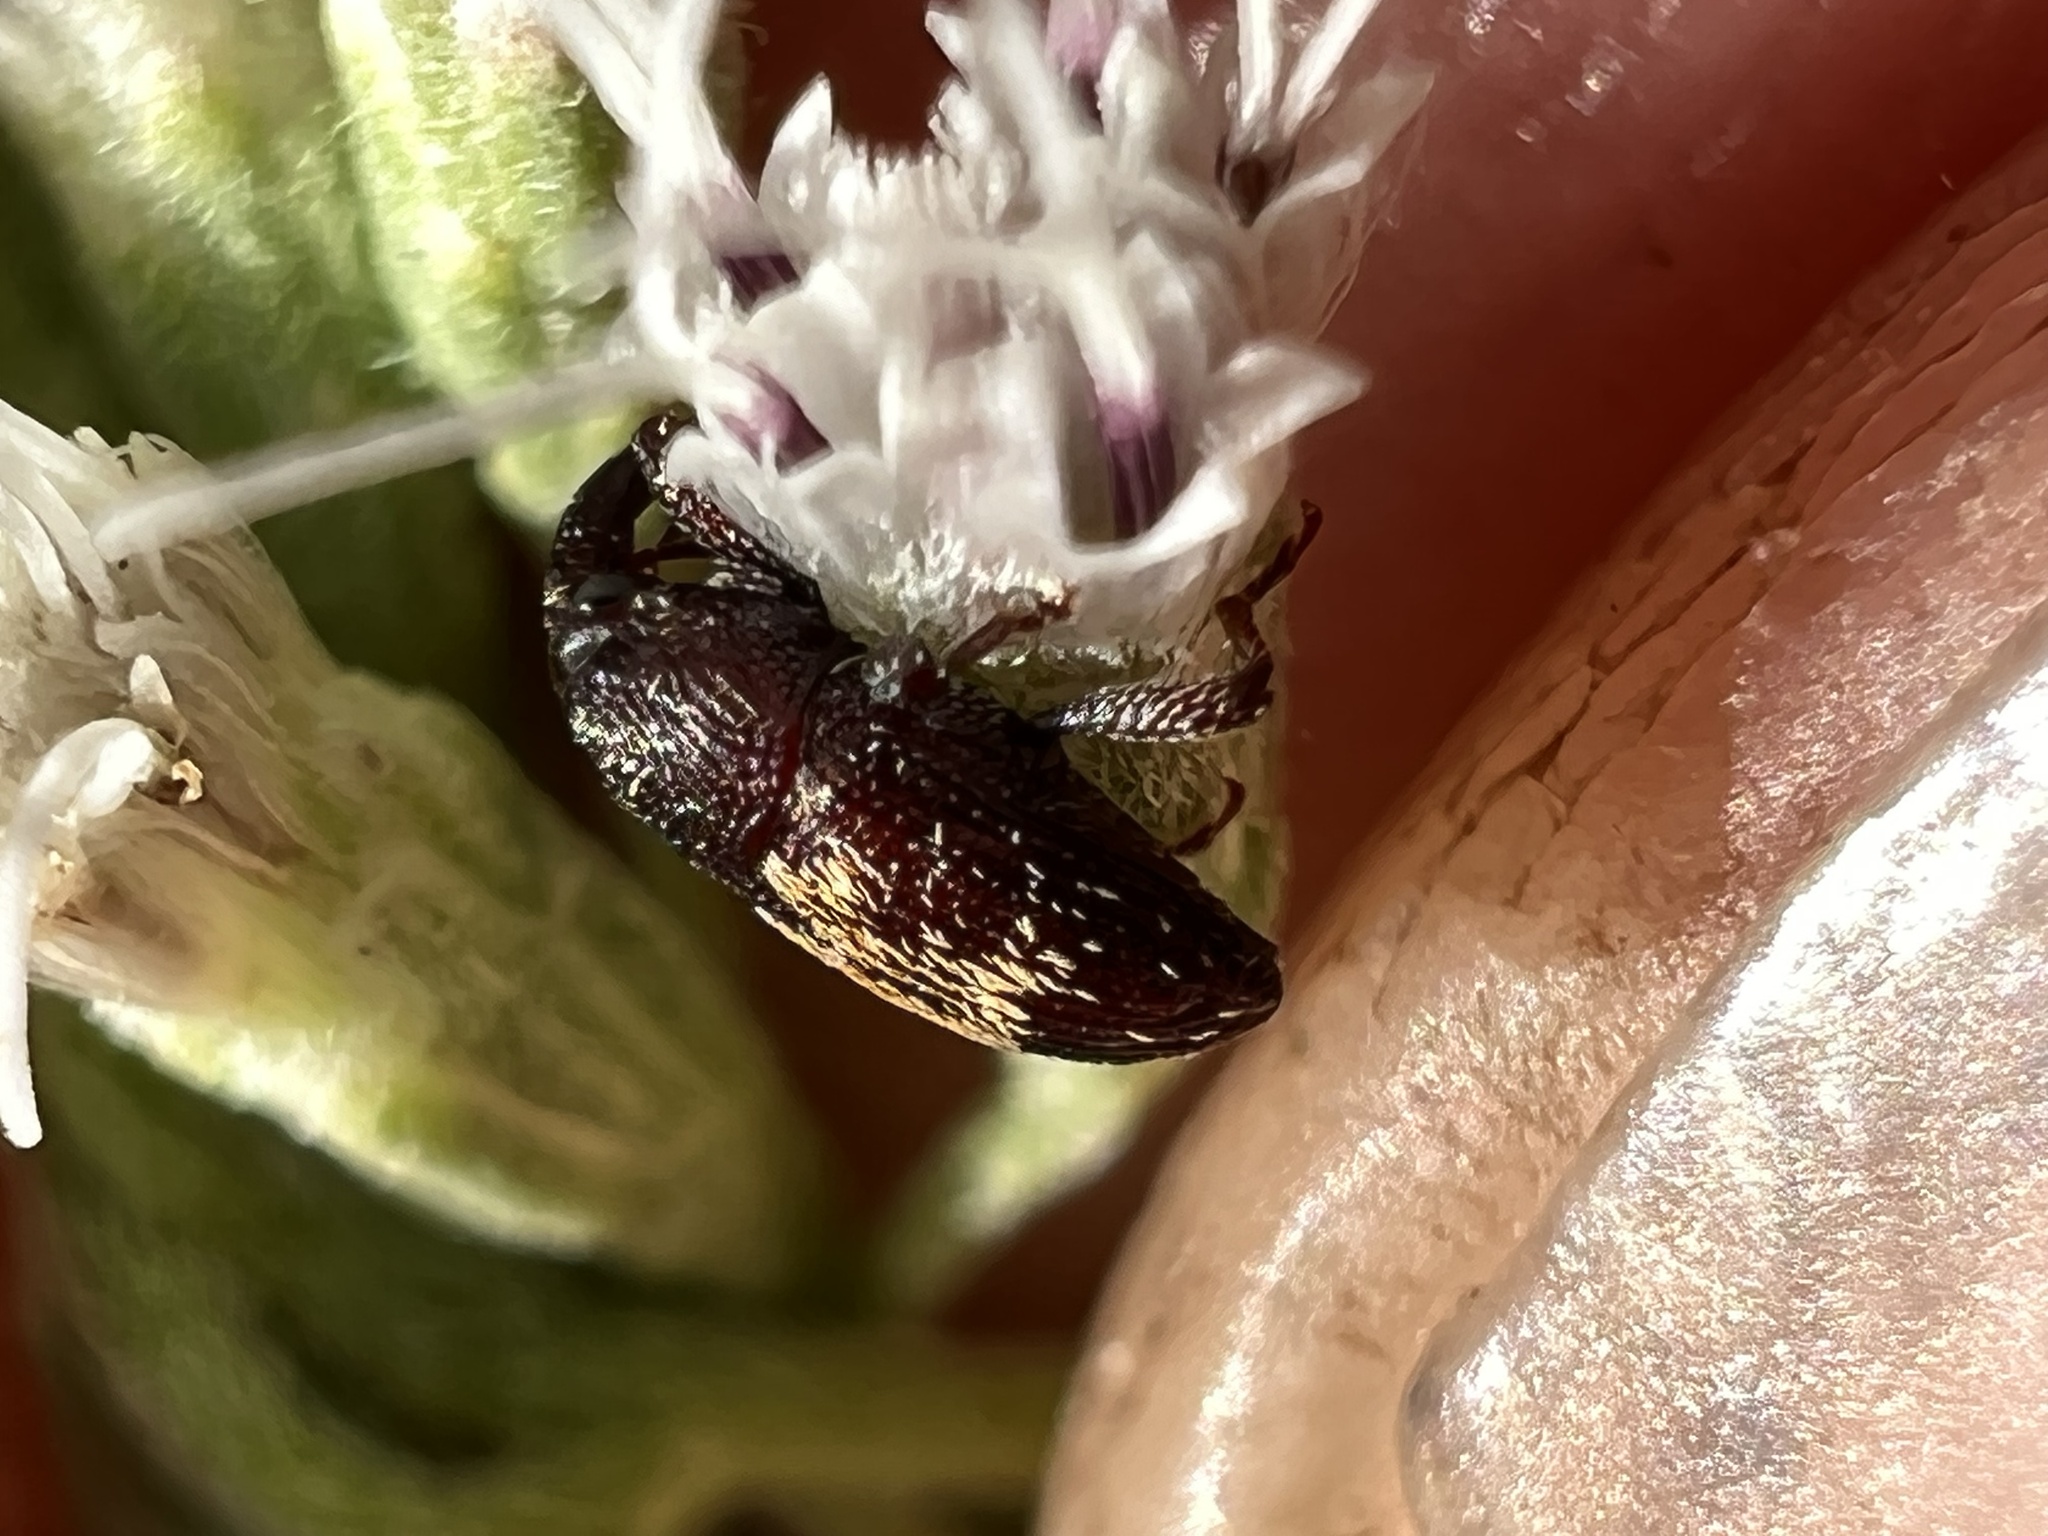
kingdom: Animalia
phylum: Arthropoda
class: Insecta
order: Coleoptera
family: Curculionidae
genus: Glyptobaris
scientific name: Glyptobaris lecontei
